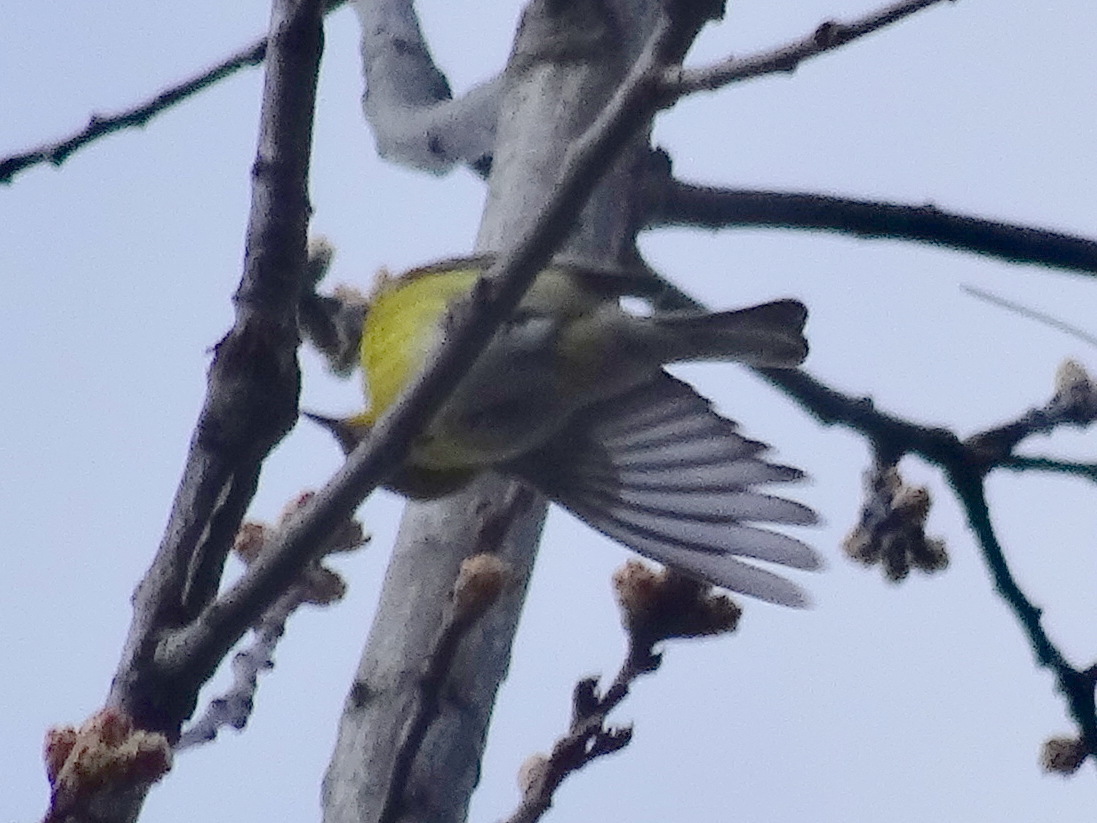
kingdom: Animalia
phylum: Chordata
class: Aves
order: Passeriformes
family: Parulidae
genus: Setophaga
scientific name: Setophaga pinus
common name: Pine warbler
